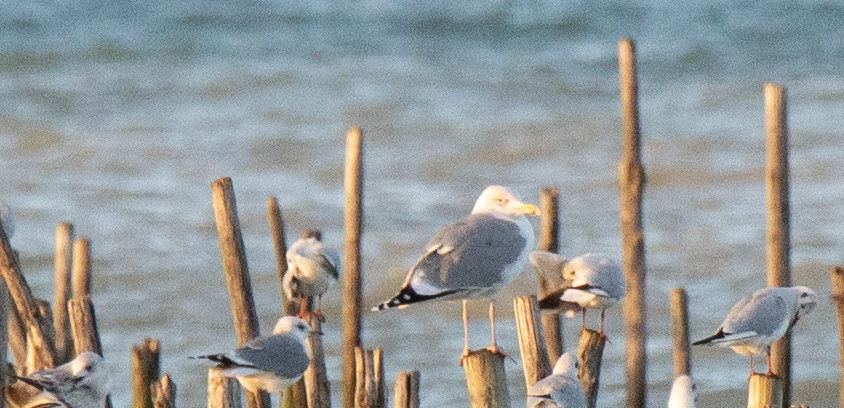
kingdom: Animalia
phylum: Chordata
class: Aves
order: Charadriiformes
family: Laridae
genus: Larus
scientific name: Larus michahellis
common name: Yellow-legged gull
